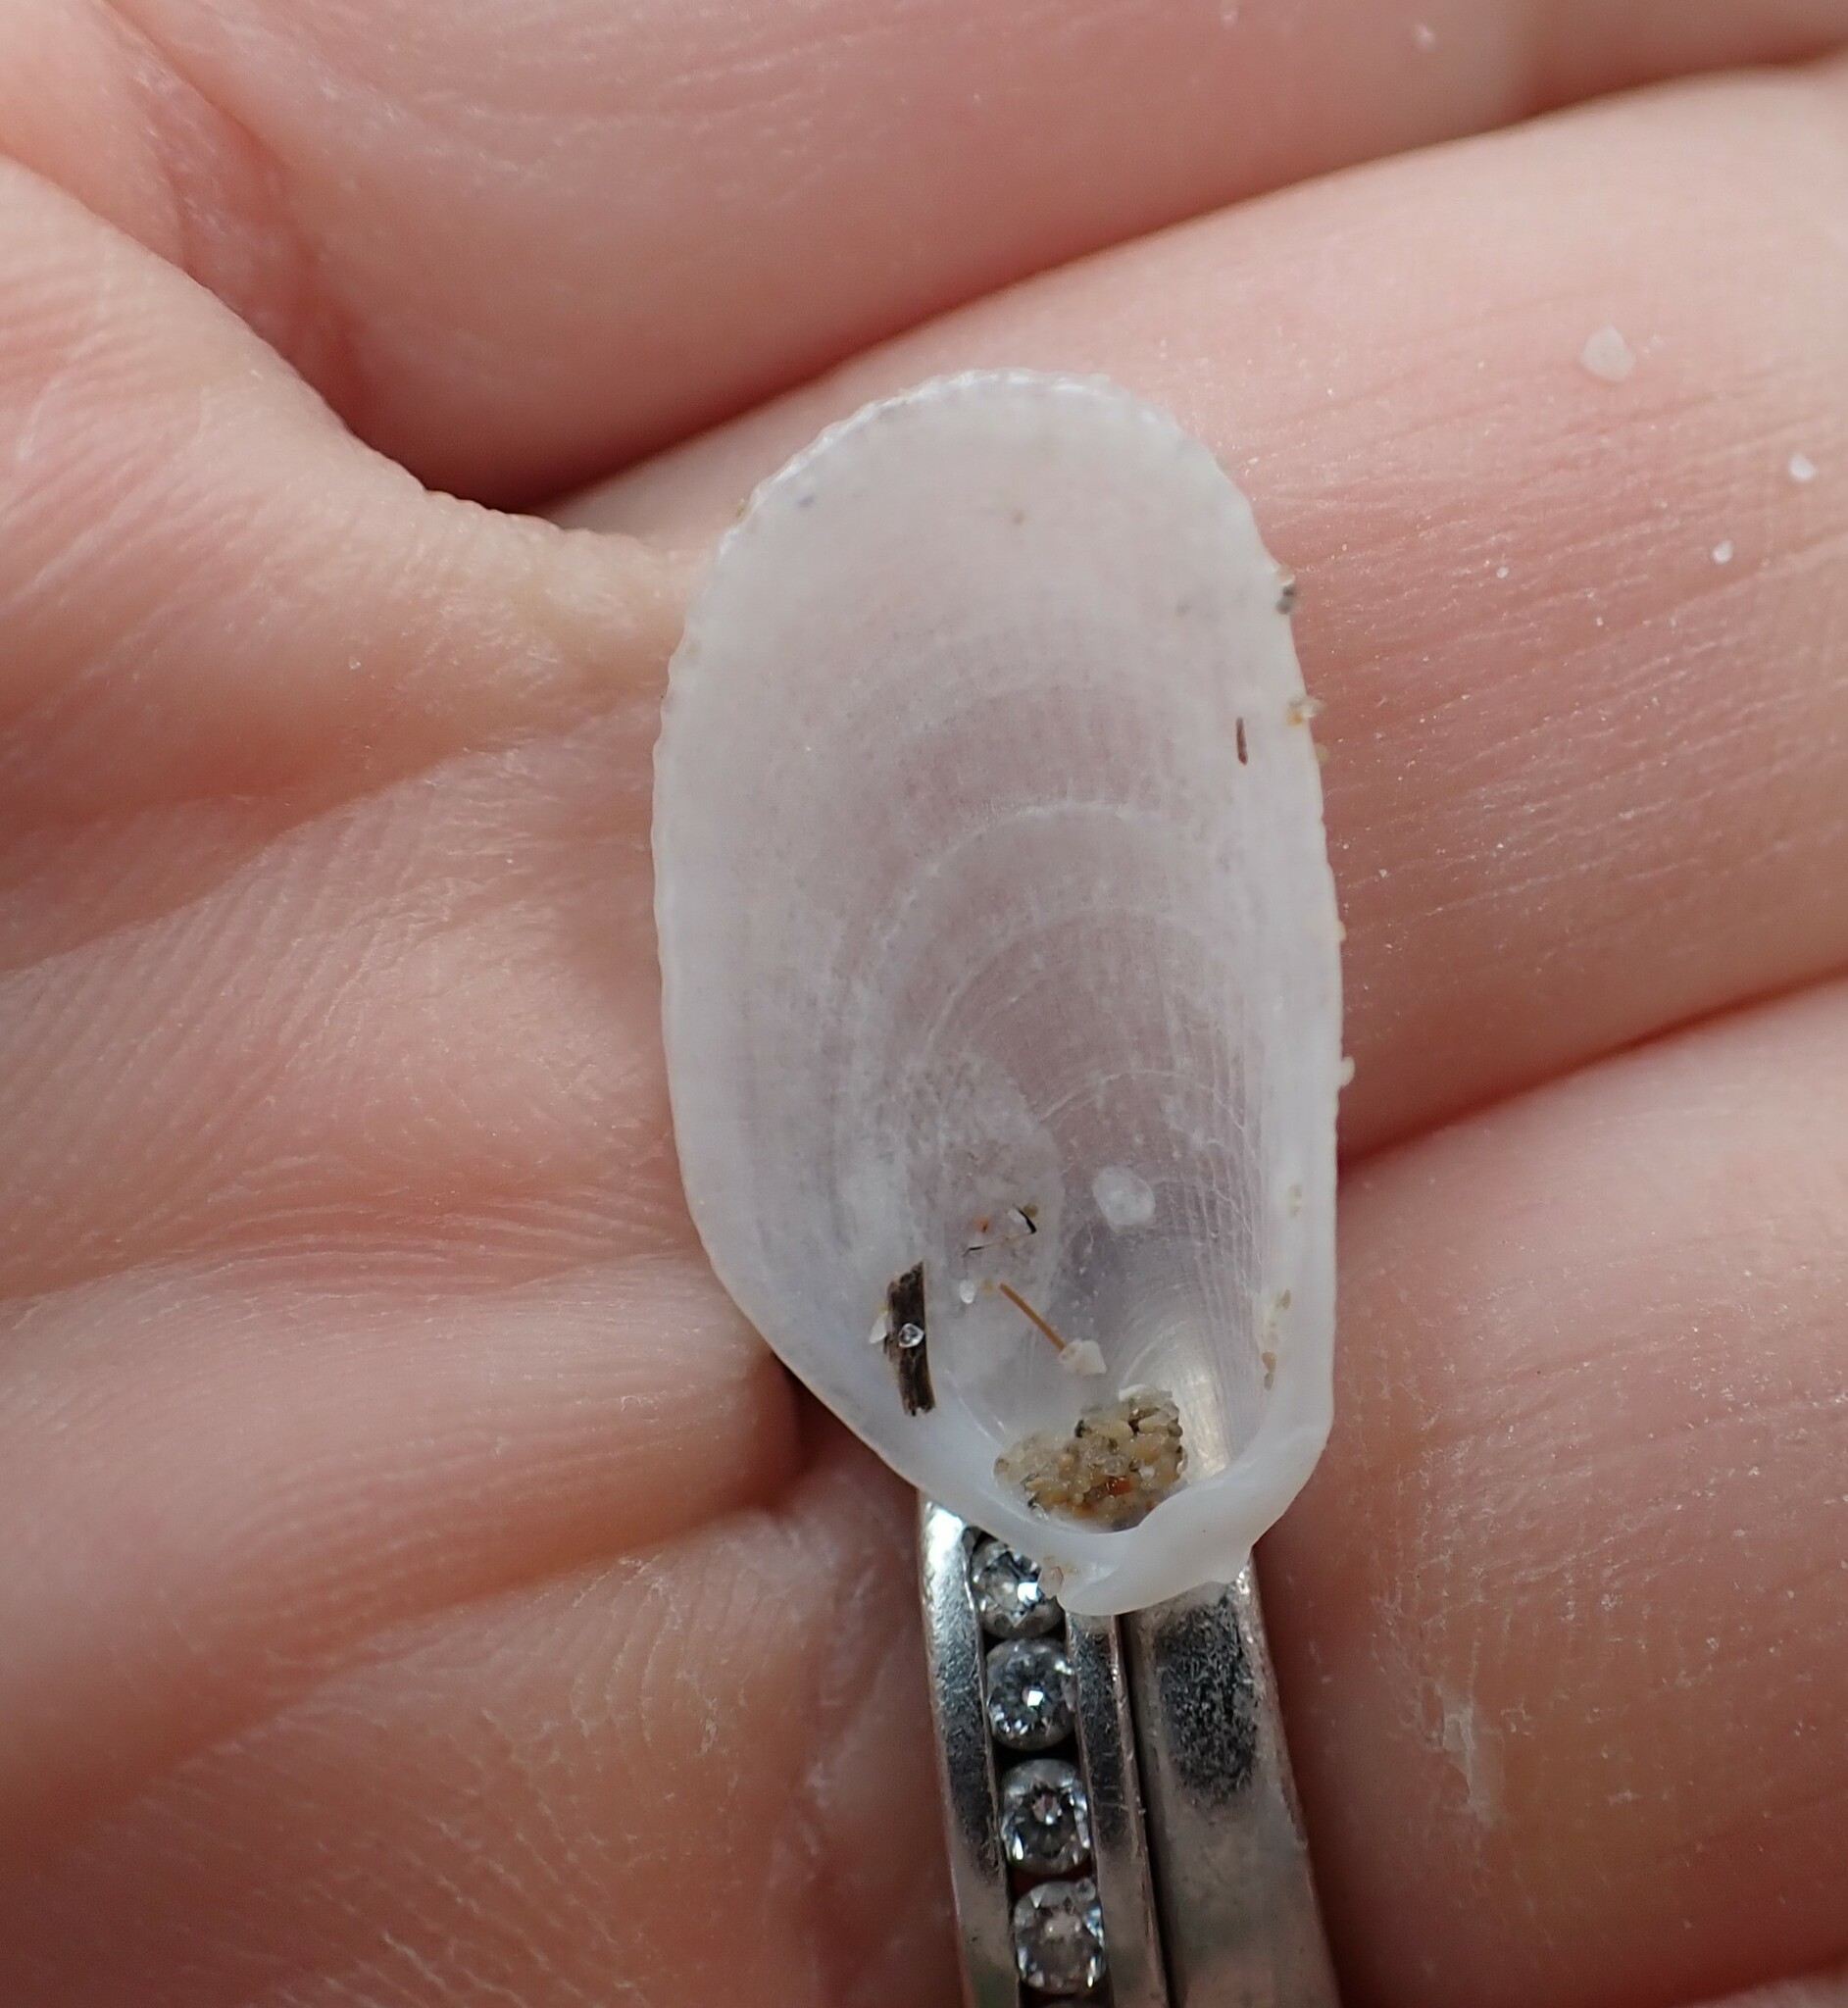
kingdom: Animalia
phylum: Mollusca
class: Bivalvia
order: Limida
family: Limidae
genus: Limaria
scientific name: Limaria hians
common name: Gaping file shale
